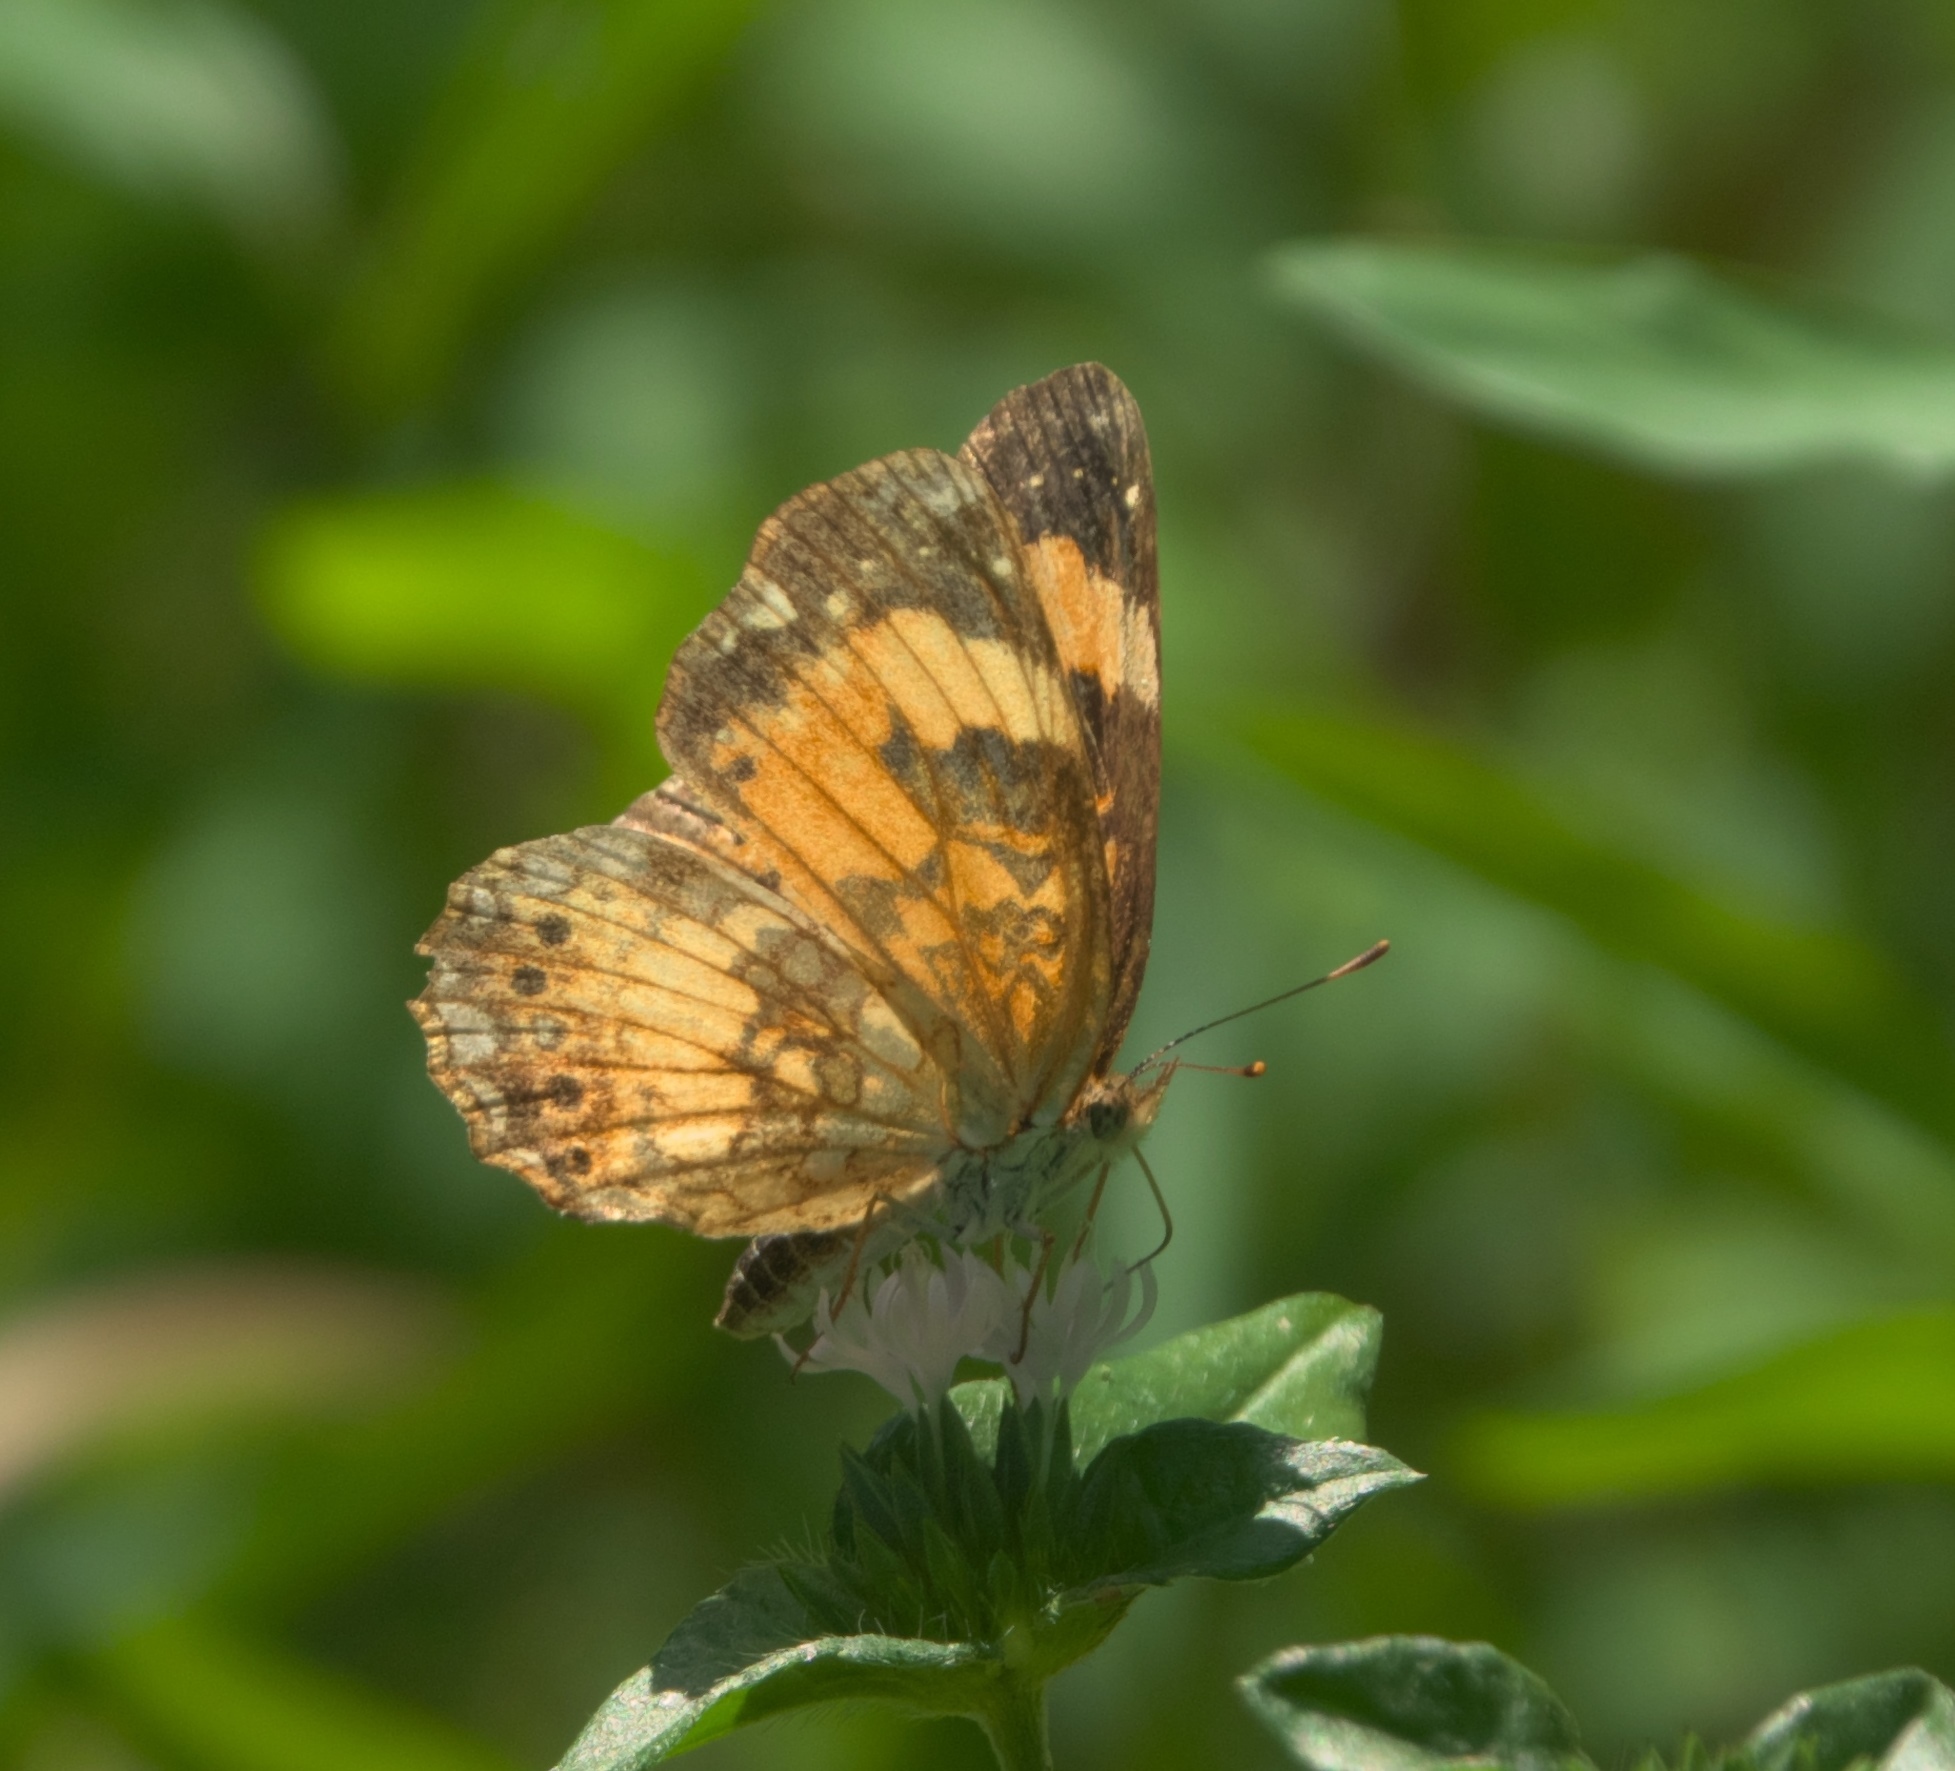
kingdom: Animalia
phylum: Arthropoda
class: Insecta
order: Lepidoptera
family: Nymphalidae
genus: Chlosyne
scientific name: Chlosyne nycteis
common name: Silvery checkerspot
